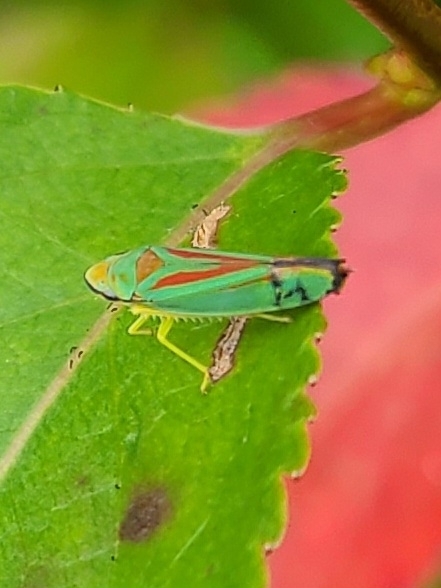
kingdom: Animalia
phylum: Arthropoda
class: Insecta
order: Hemiptera
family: Cicadellidae
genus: Graphocephala
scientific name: Graphocephala fennahi
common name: Rhododendron leafhopper
